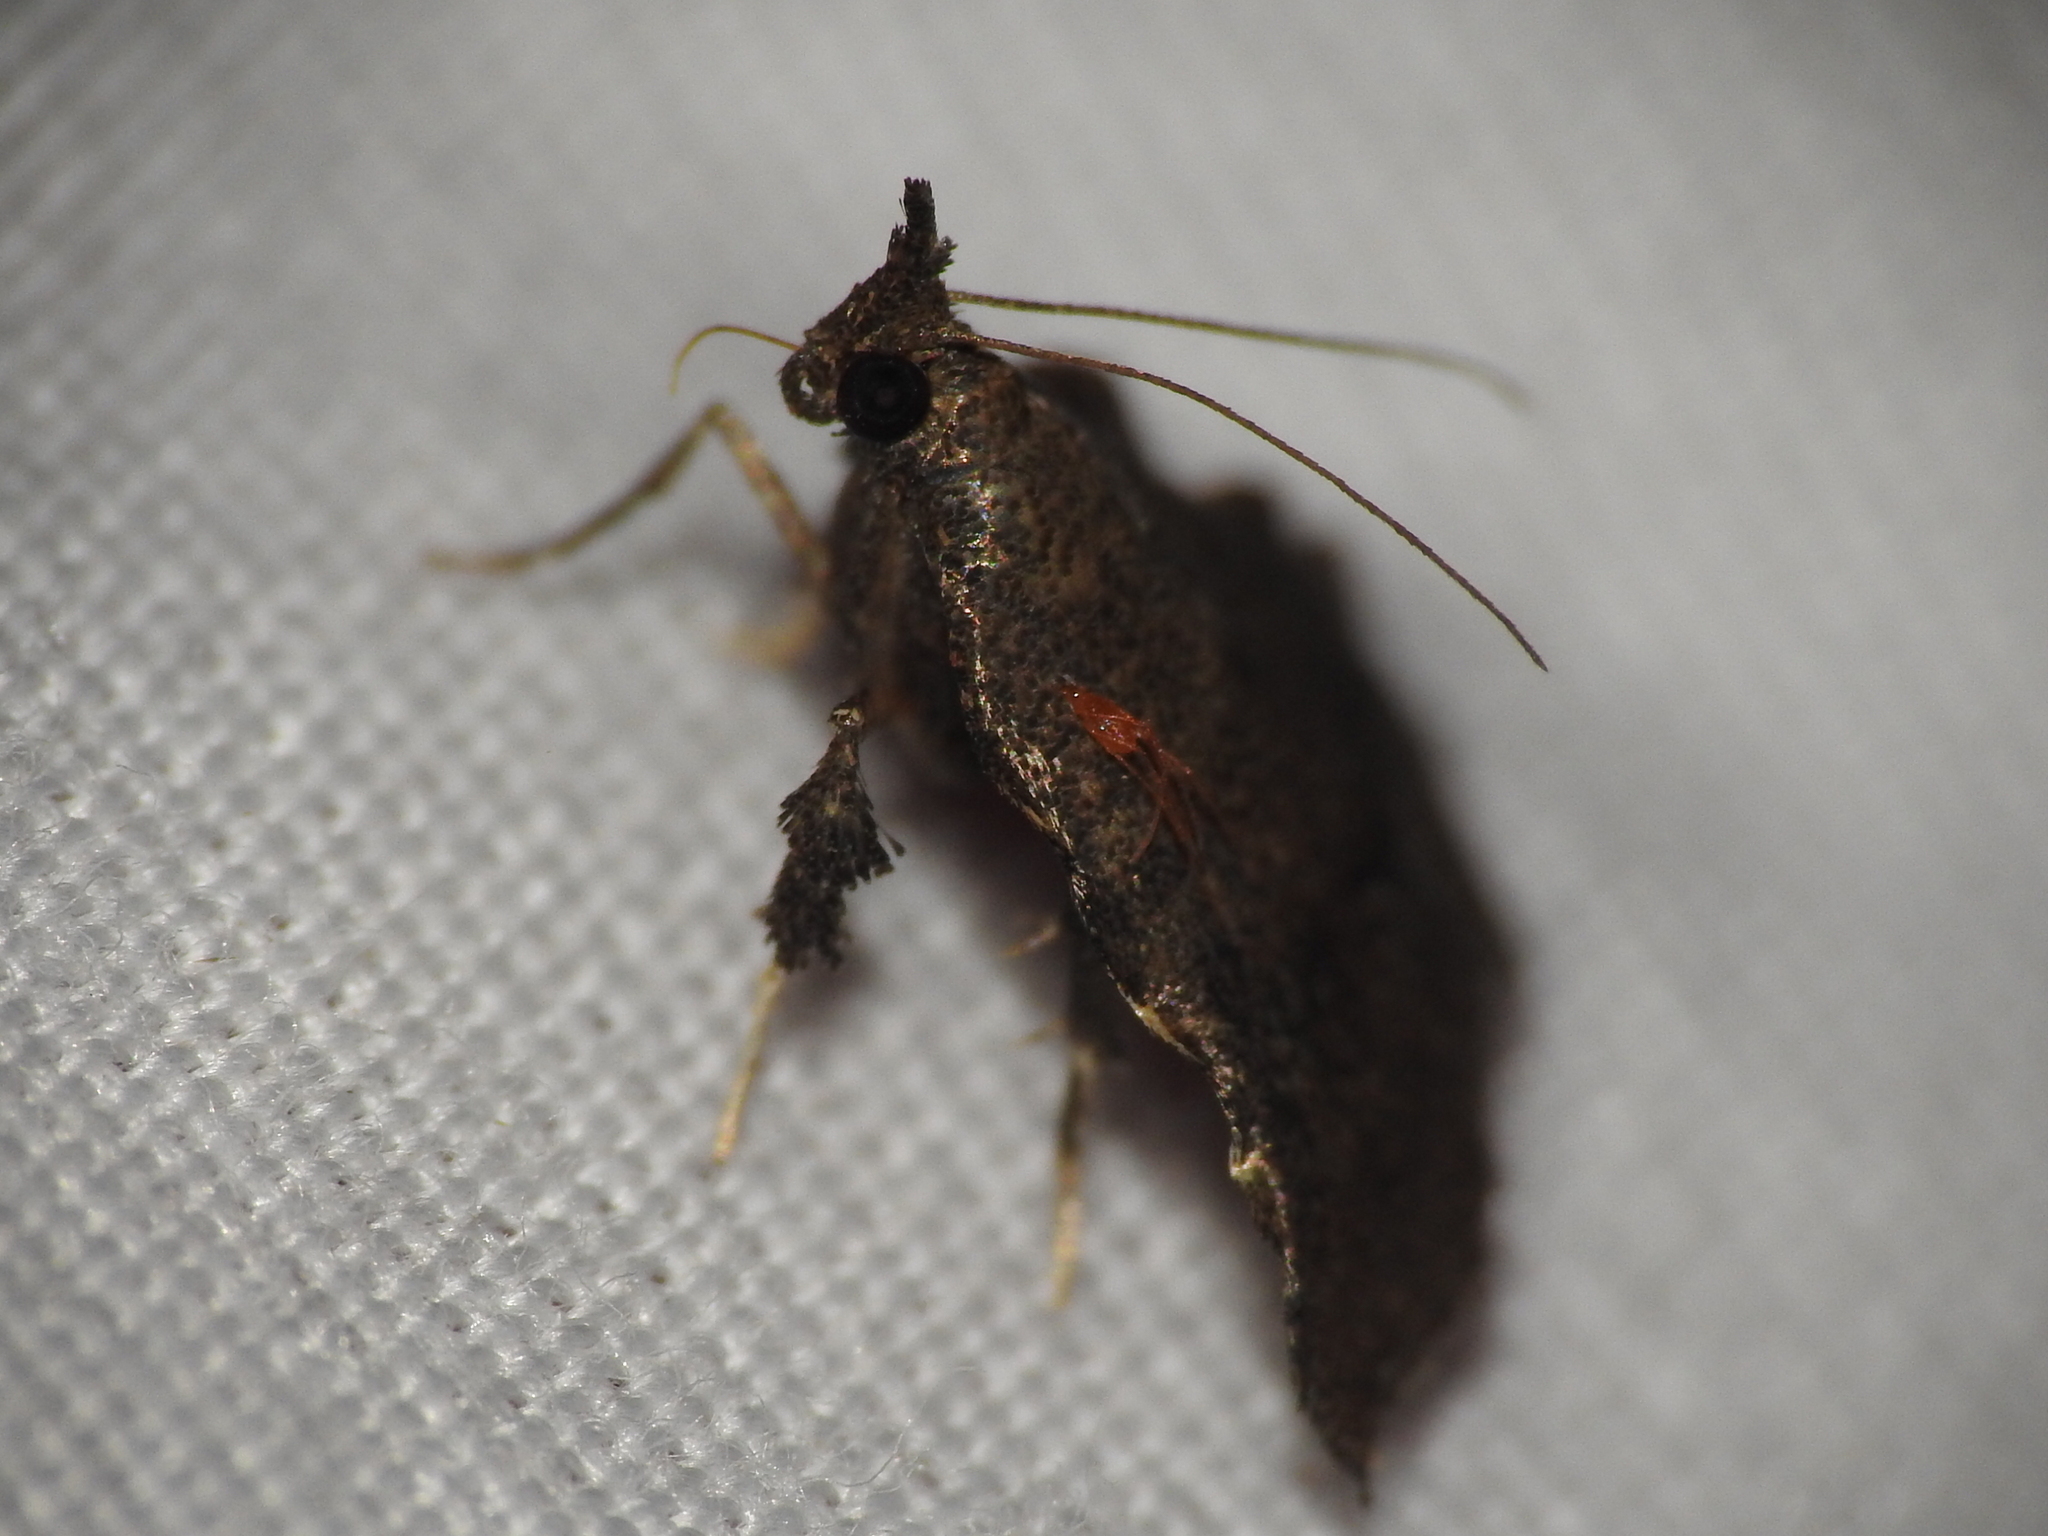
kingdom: Animalia
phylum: Arthropoda
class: Insecta
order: Lepidoptera
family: Pyralidae
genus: Salobrena
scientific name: Salobrena sincera
